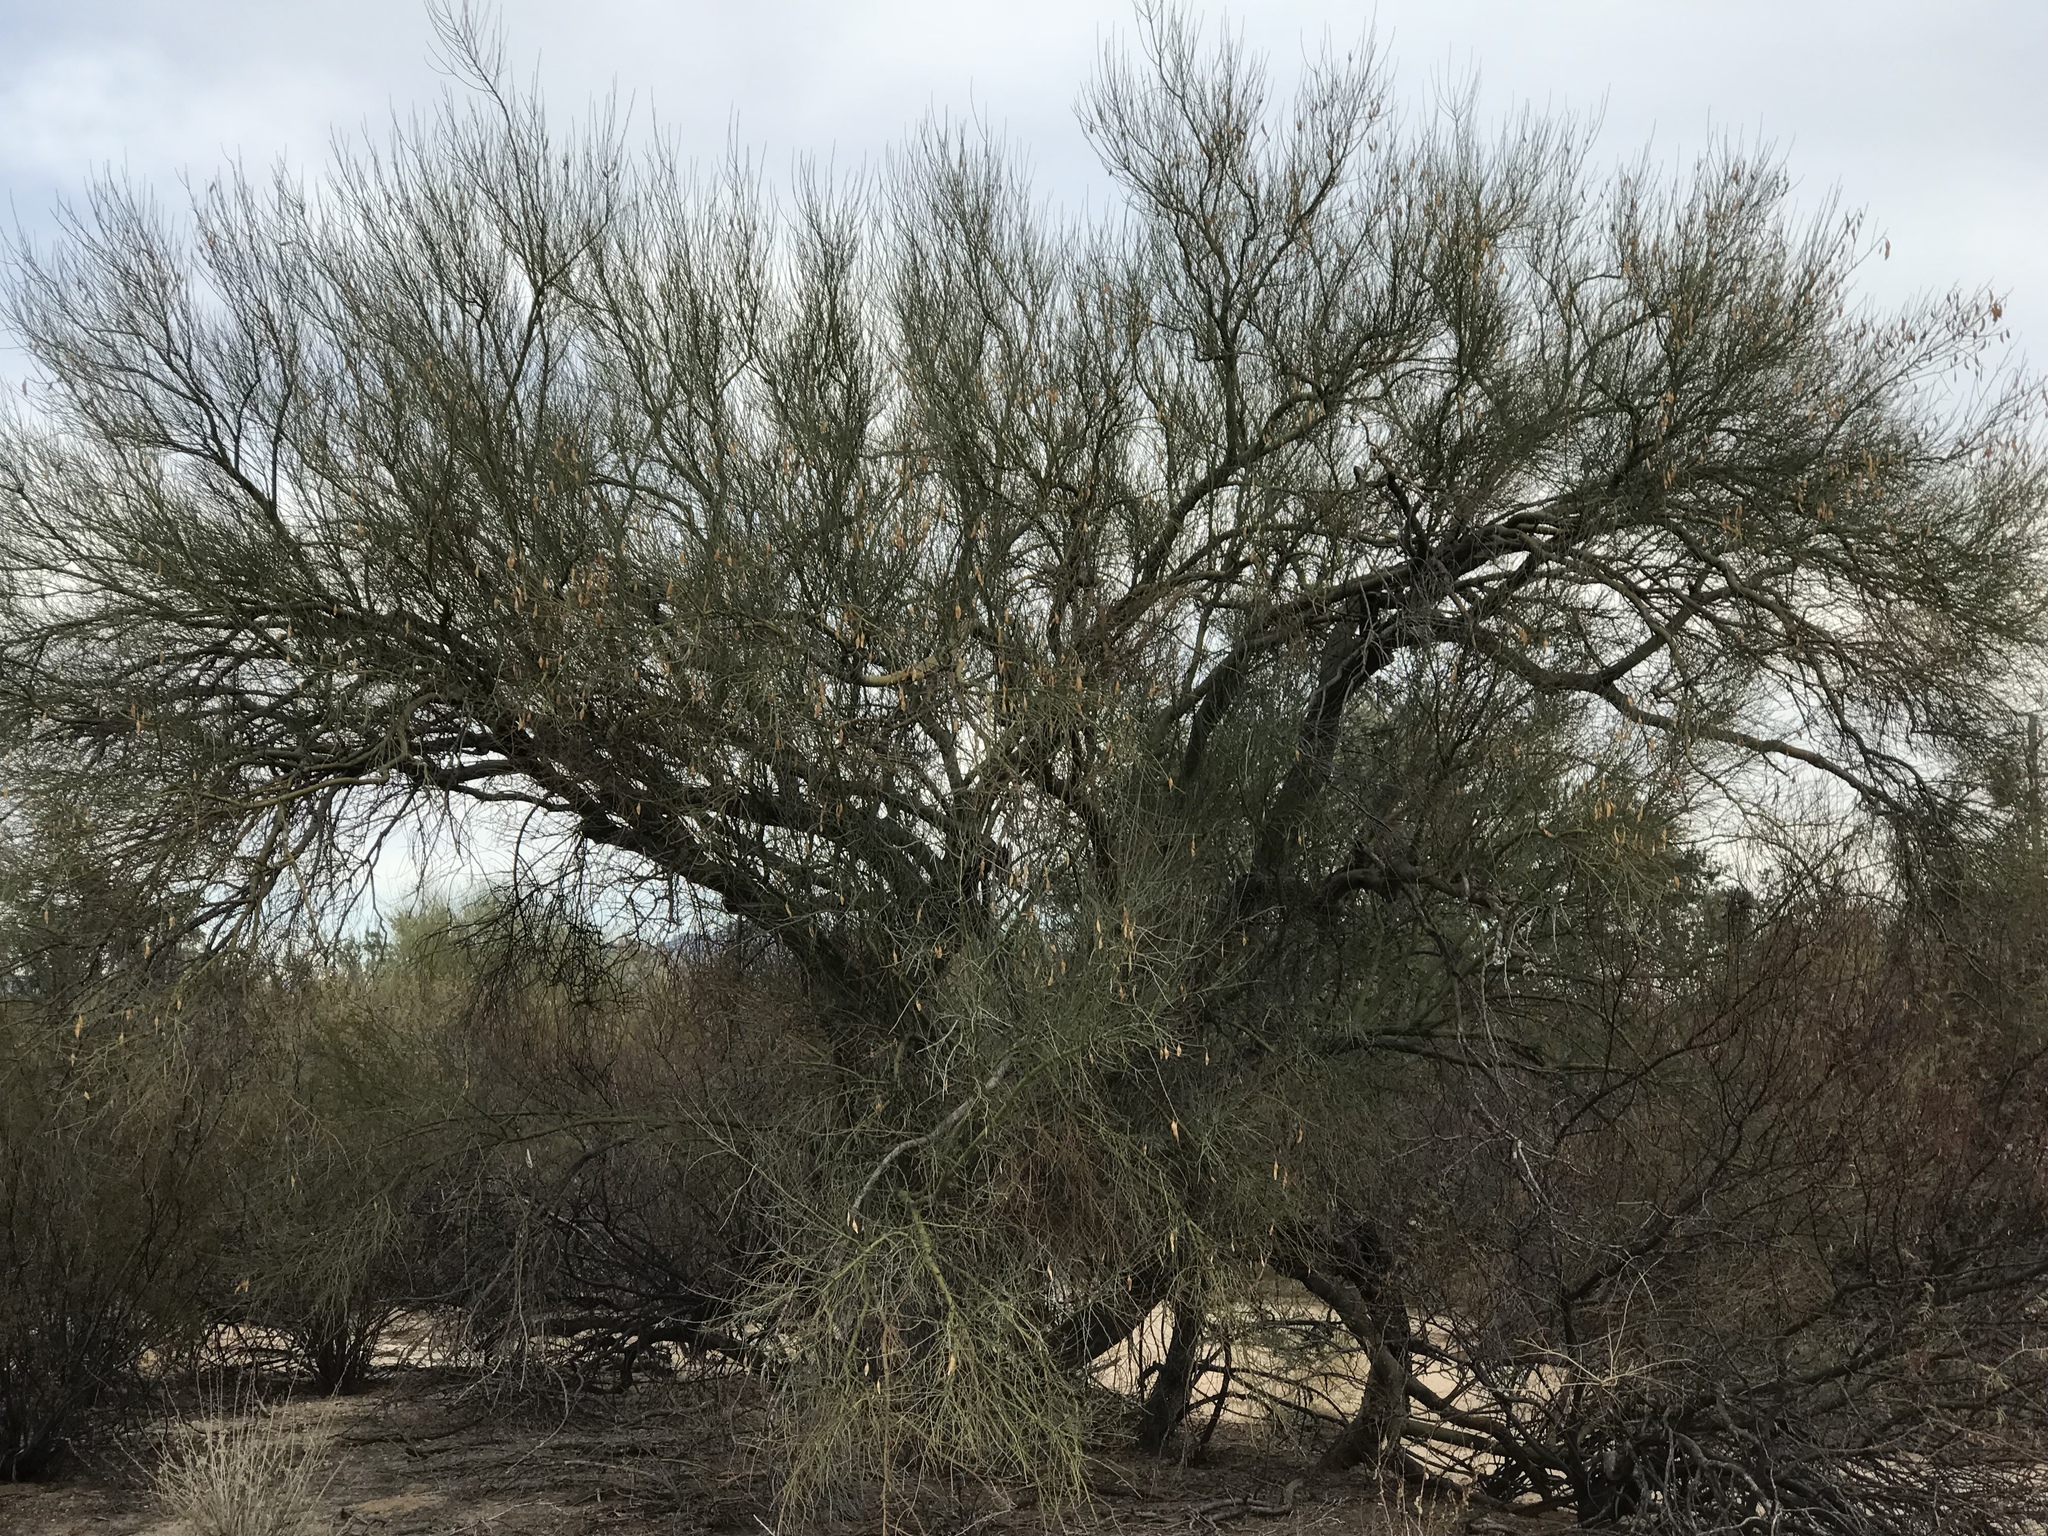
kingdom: Plantae
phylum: Tracheophyta
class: Magnoliopsida
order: Fabales
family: Fabaceae
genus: Parkinsonia
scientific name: Parkinsonia florida
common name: Blue paloverde
